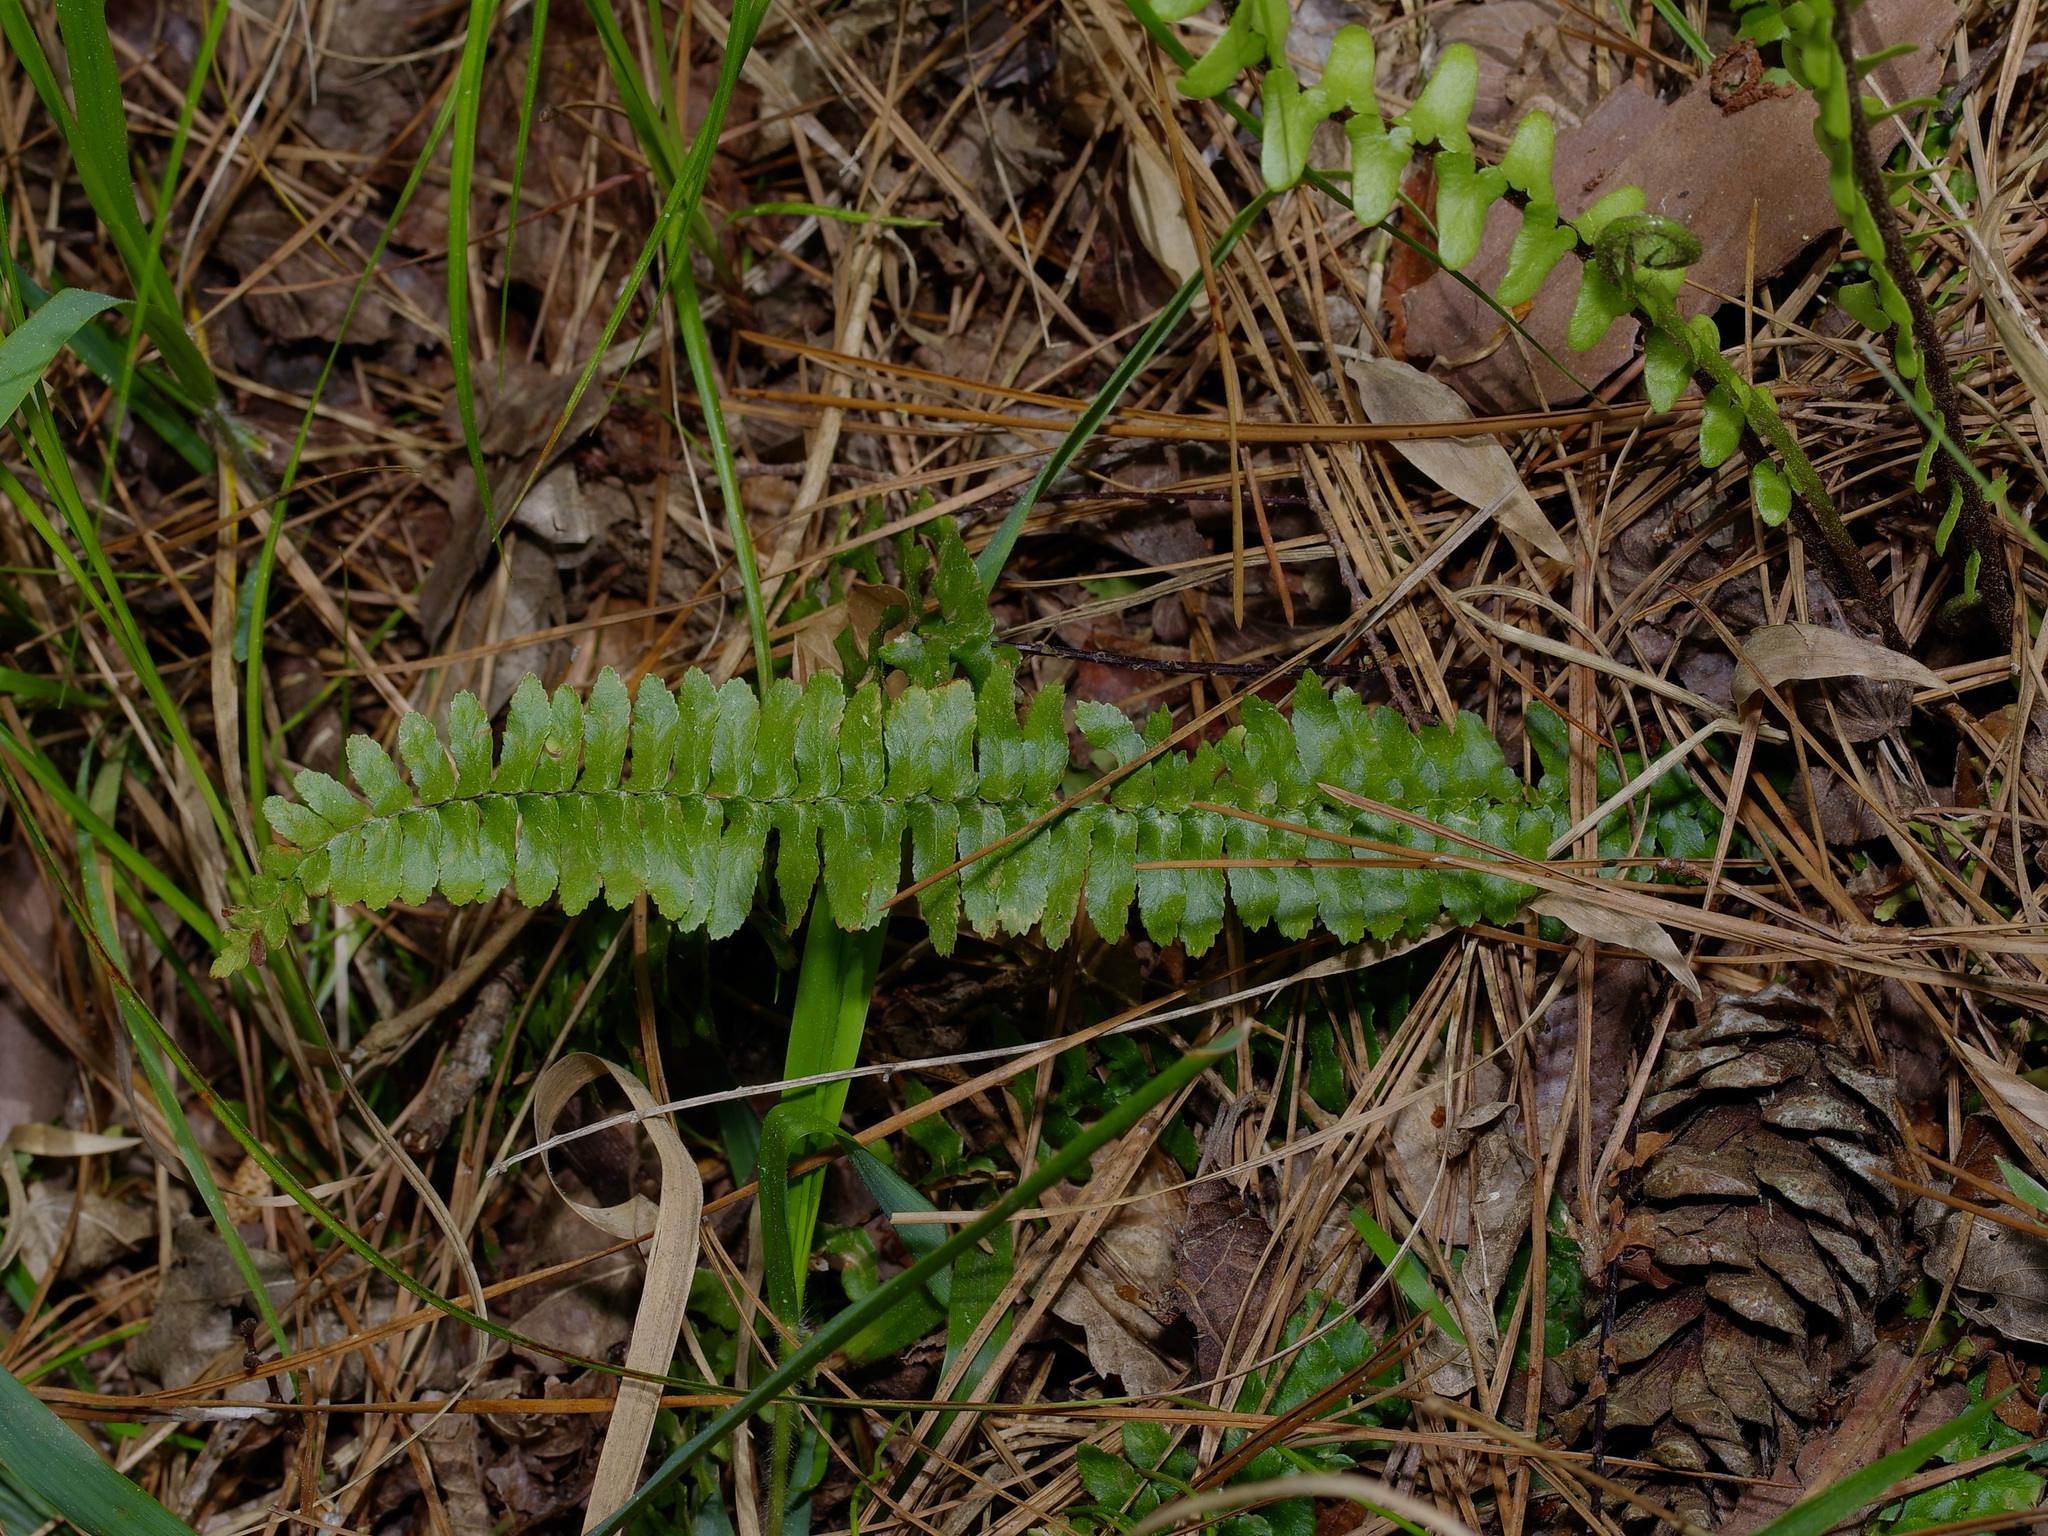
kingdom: Plantae
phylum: Tracheophyta
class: Polypodiopsida
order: Polypodiales
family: Aspleniaceae
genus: Asplenium
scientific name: Asplenium platyneuron
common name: Ebony spleenwort
